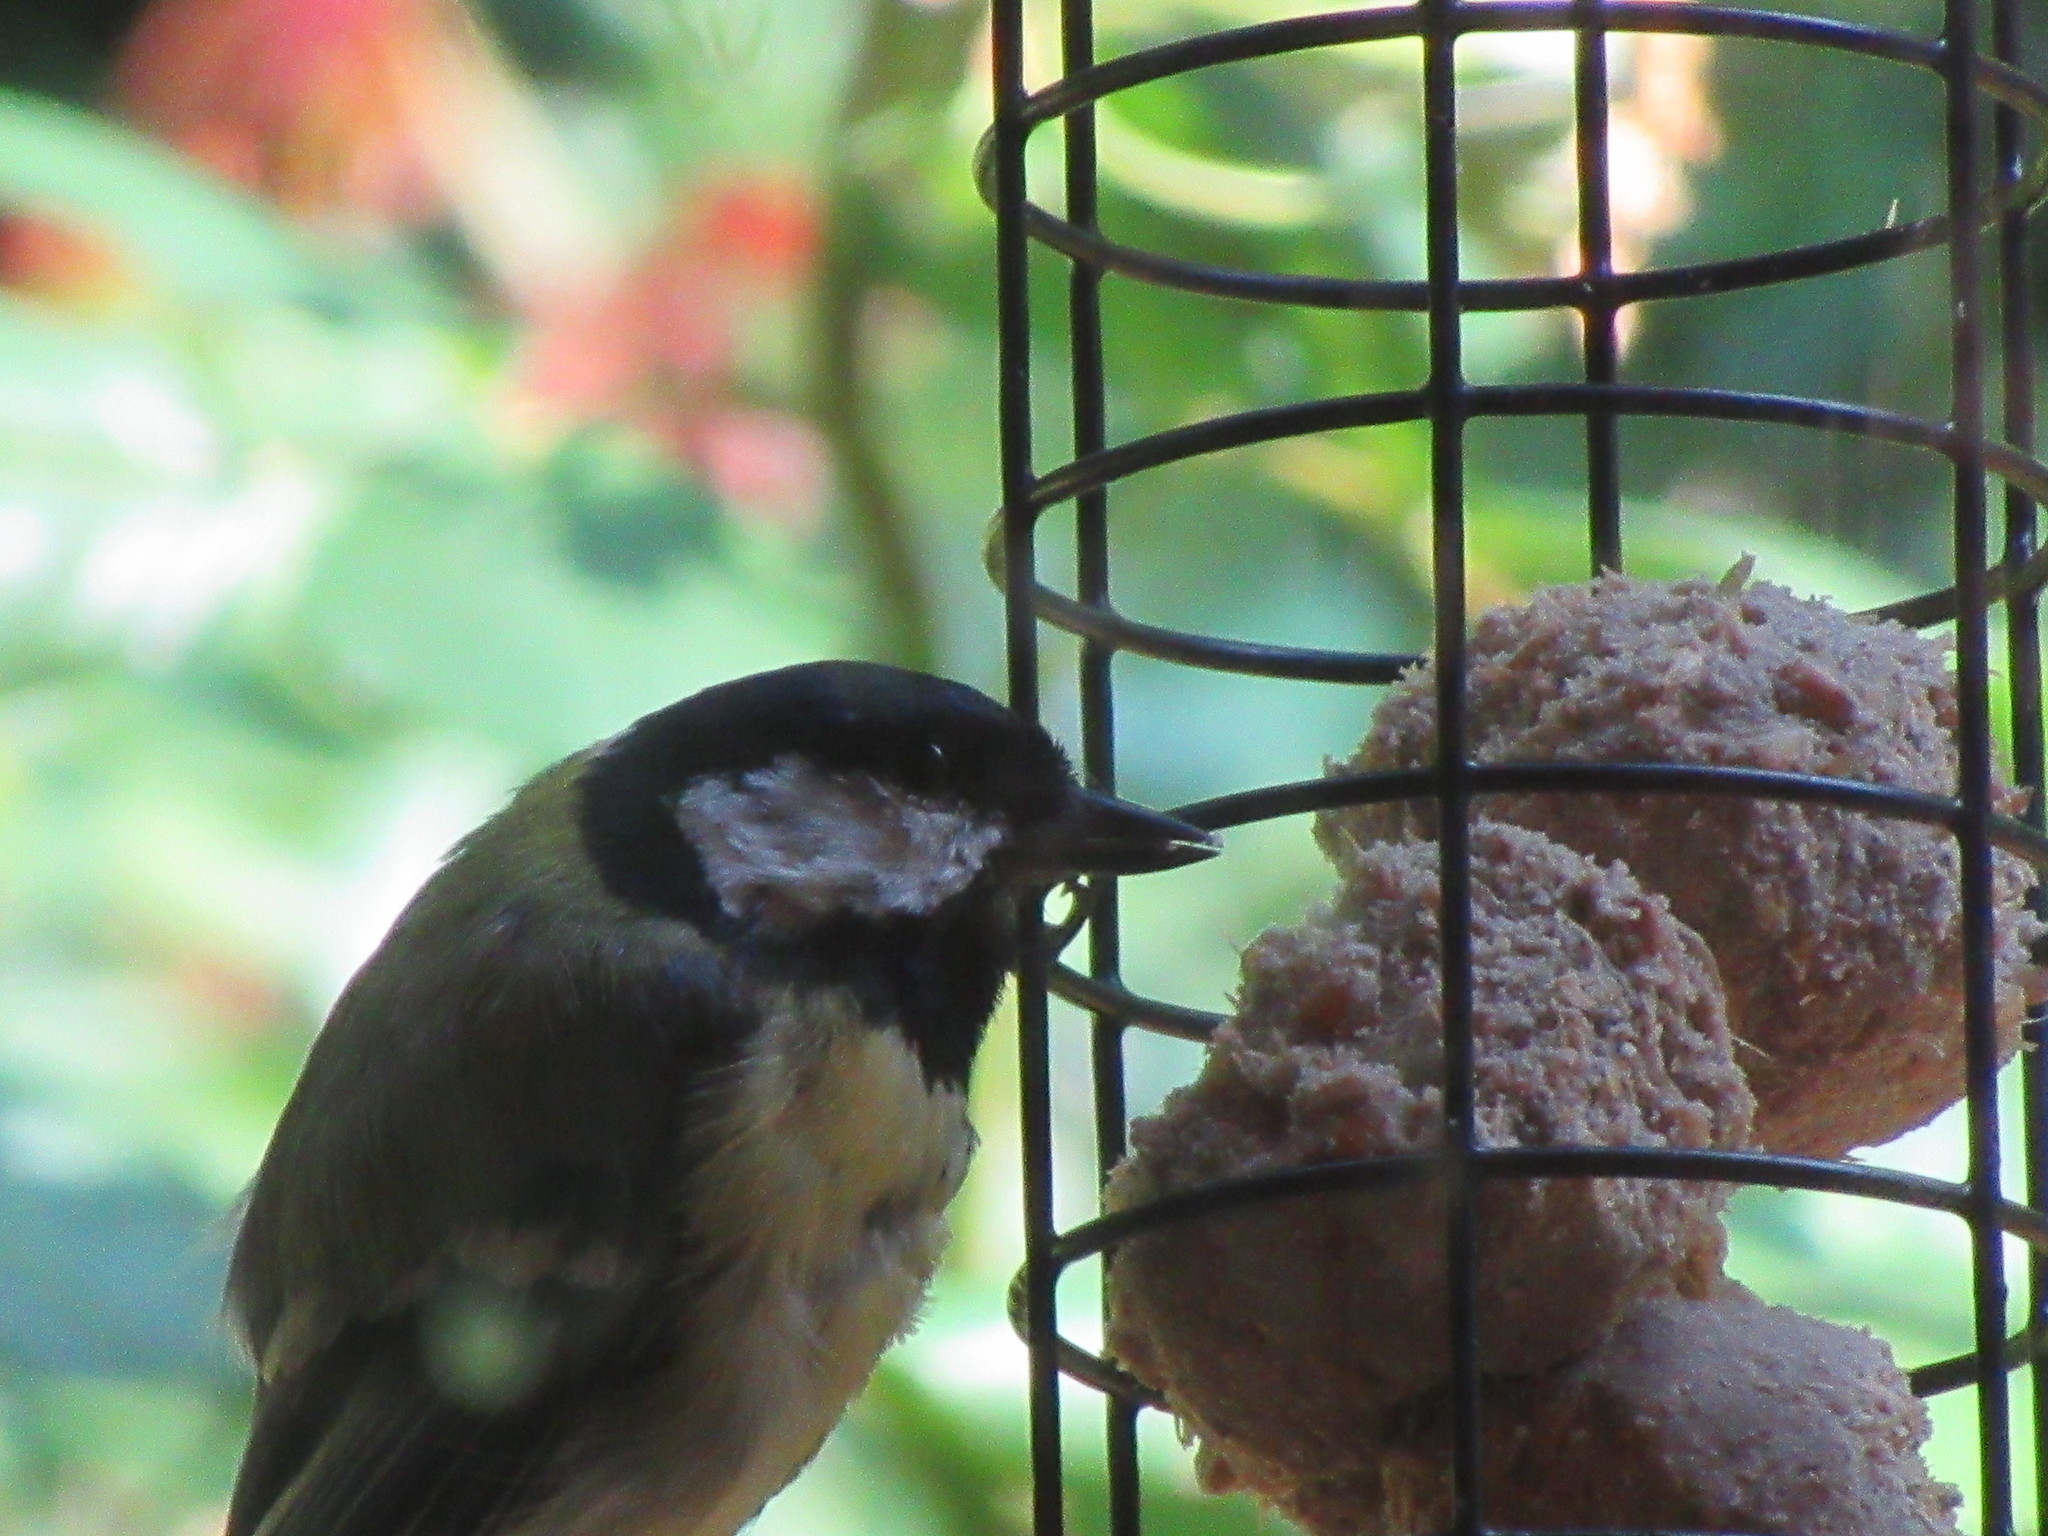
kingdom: Animalia
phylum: Chordata
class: Aves
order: Passeriformes
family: Paridae
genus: Parus
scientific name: Parus major
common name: Great tit
